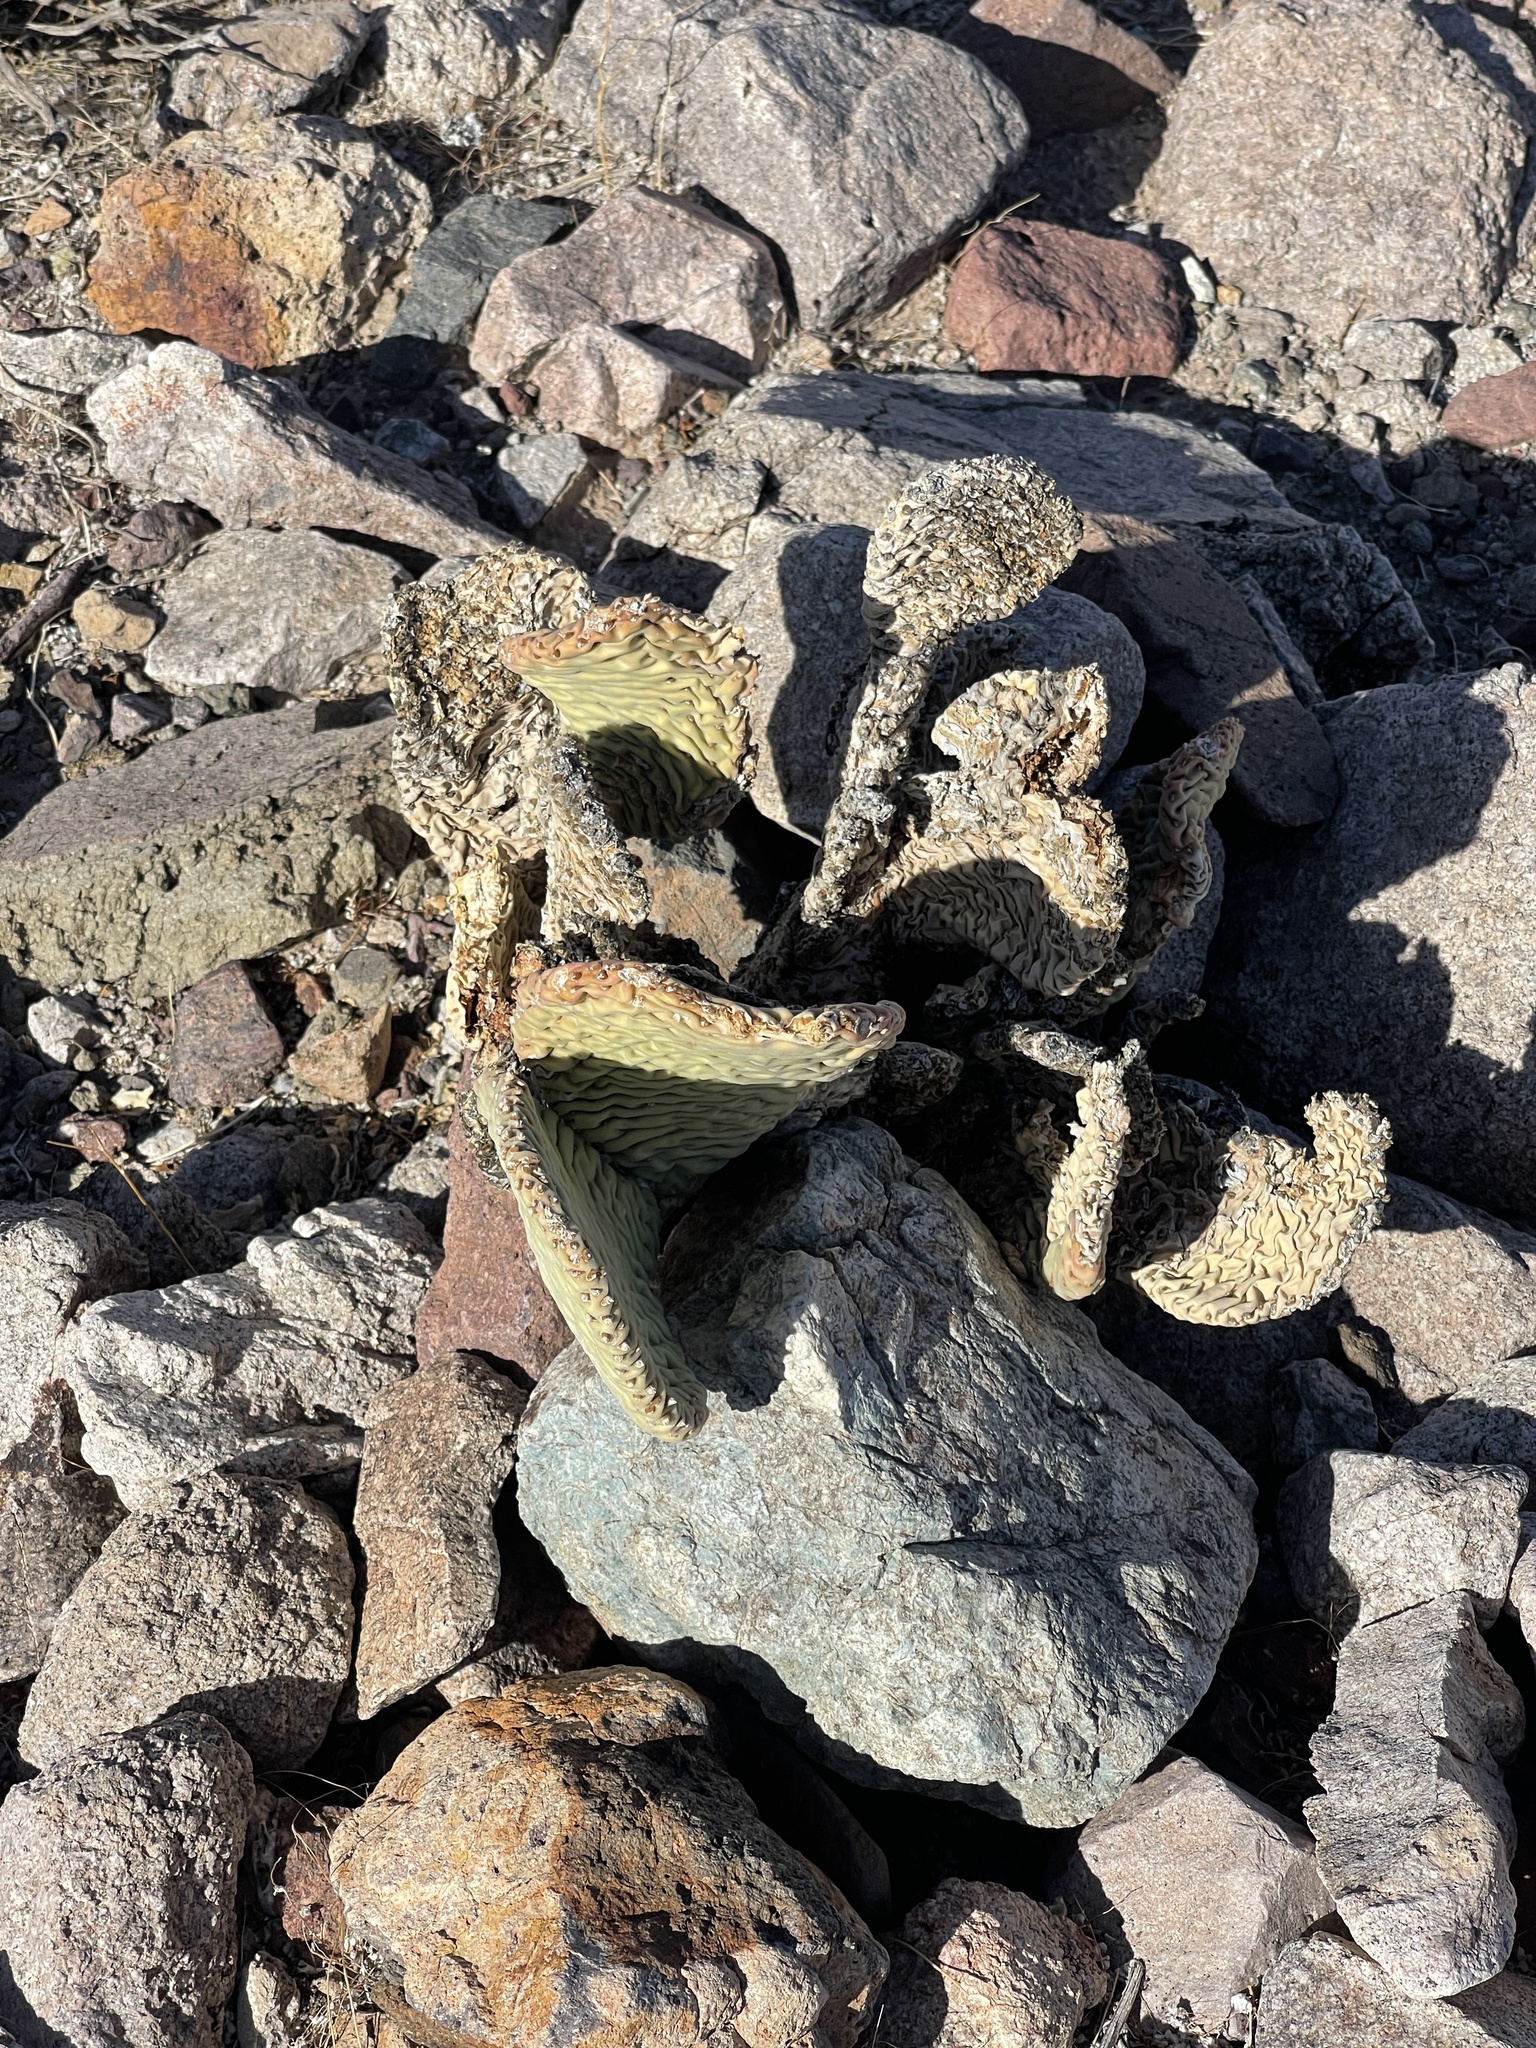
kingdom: Plantae
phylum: Tracheophyta
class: Magnoliopsida
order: Caryophyllales
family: Cactaceae
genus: Opuntia
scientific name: Opuntia basilaris
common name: Beavertail prickly-pear
